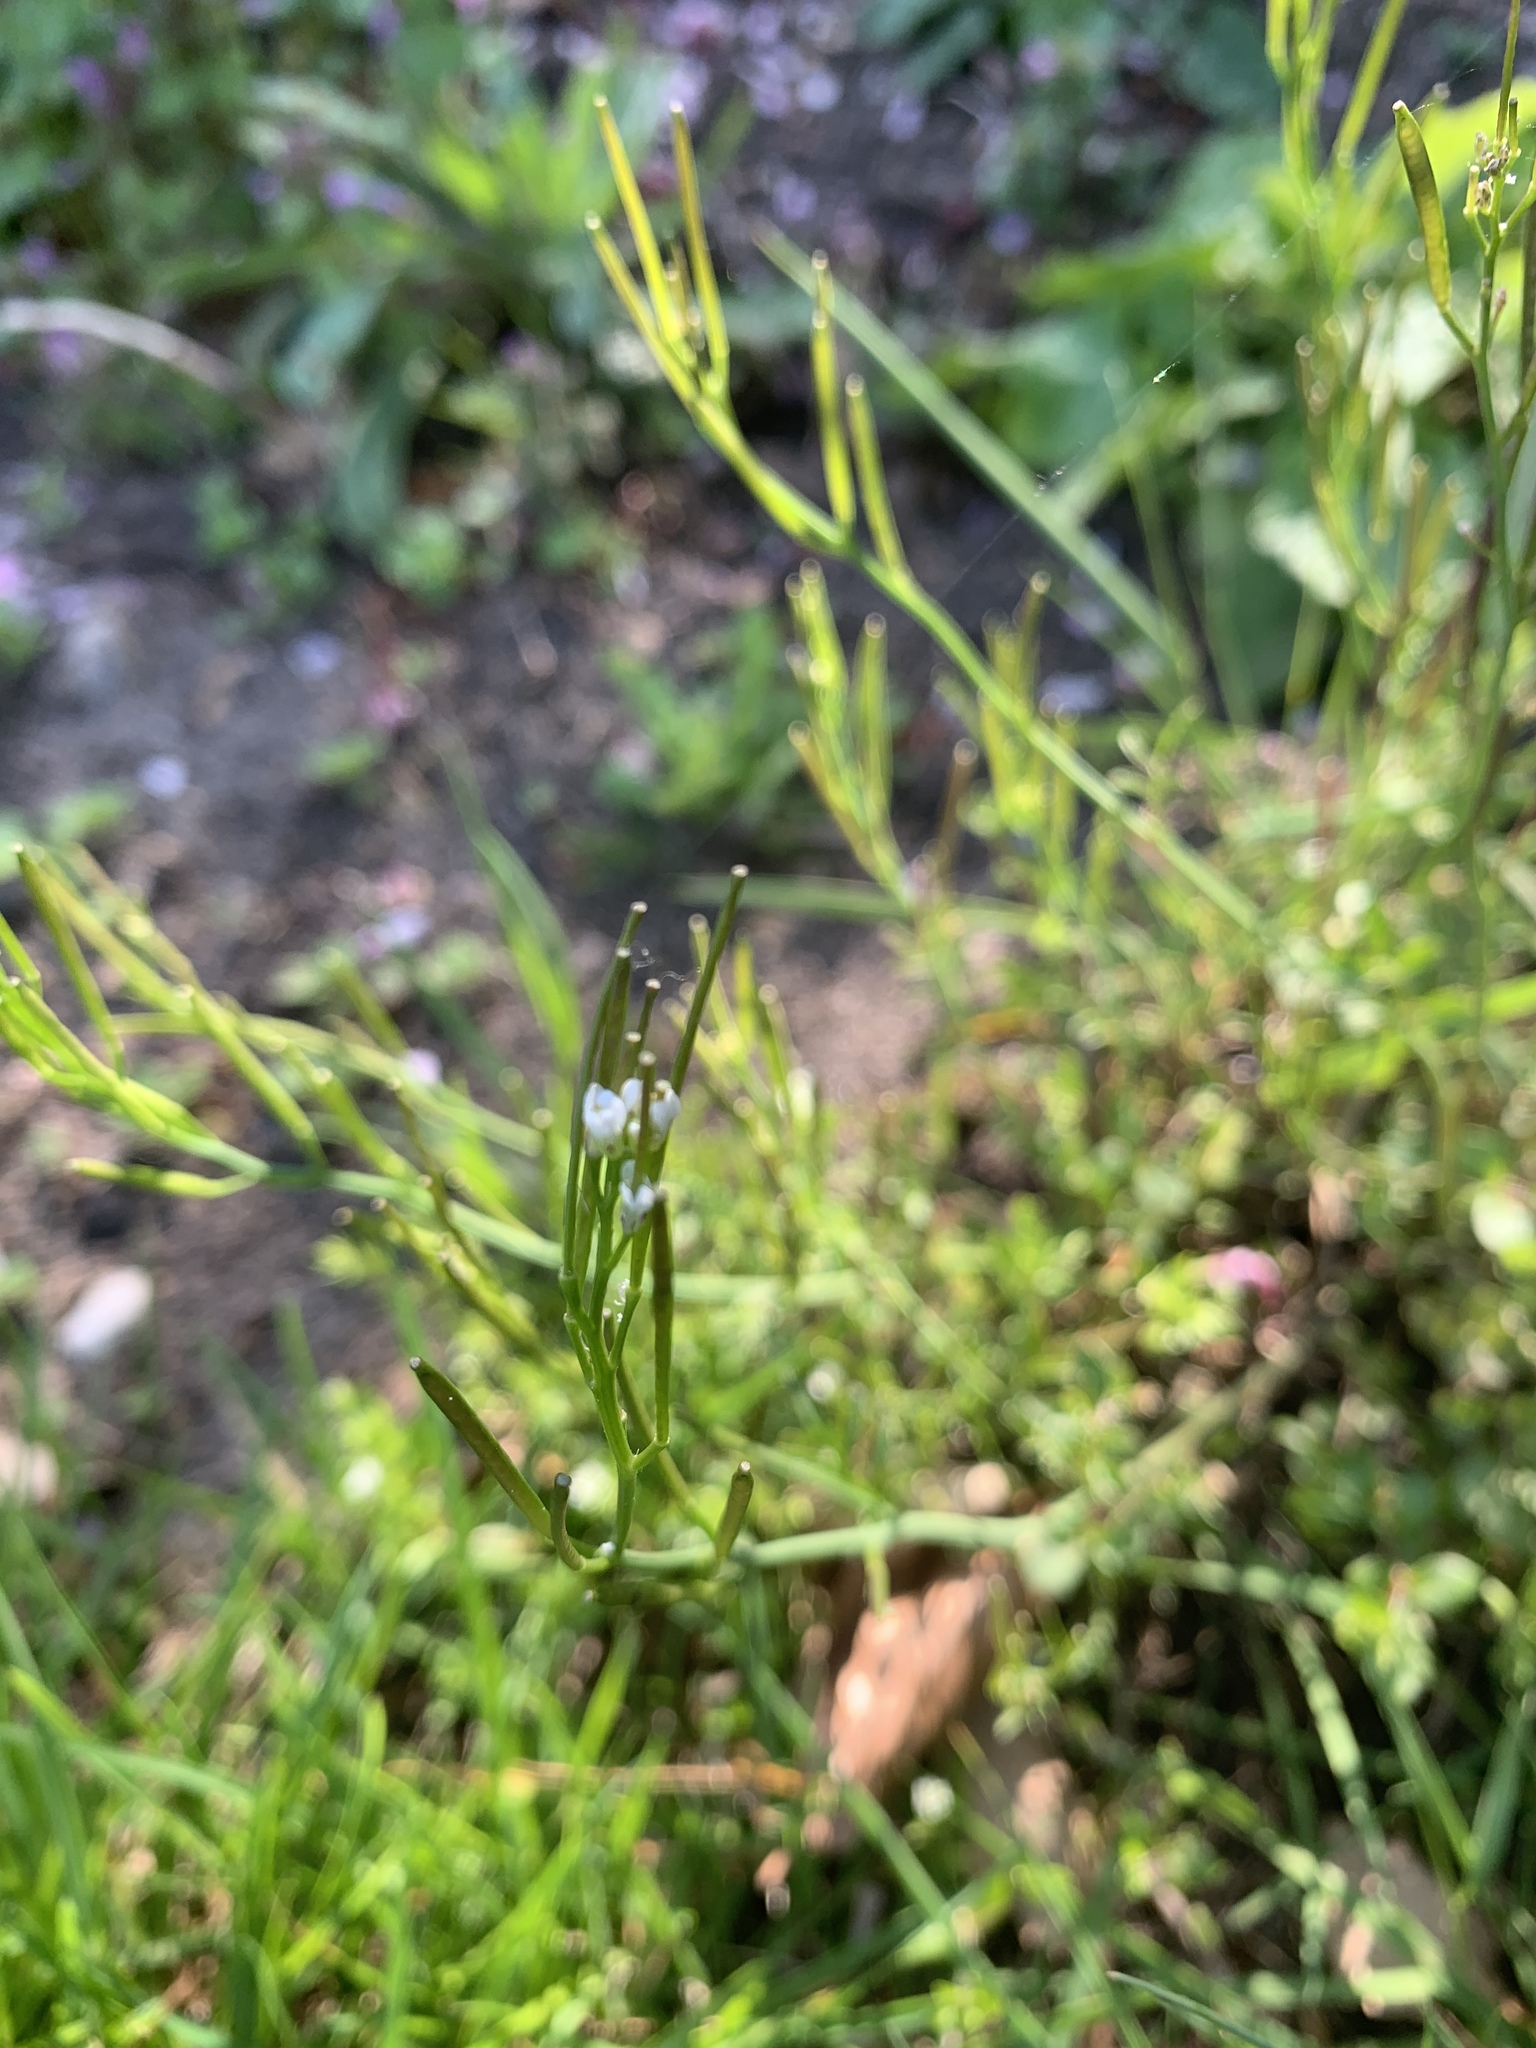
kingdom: Plantae
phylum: Tracheophyta
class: Magnoliopsida
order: Brassicales
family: Brassicaceae
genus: Cardamine
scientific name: Cardamine hirsuta
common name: Hairy bittercress
